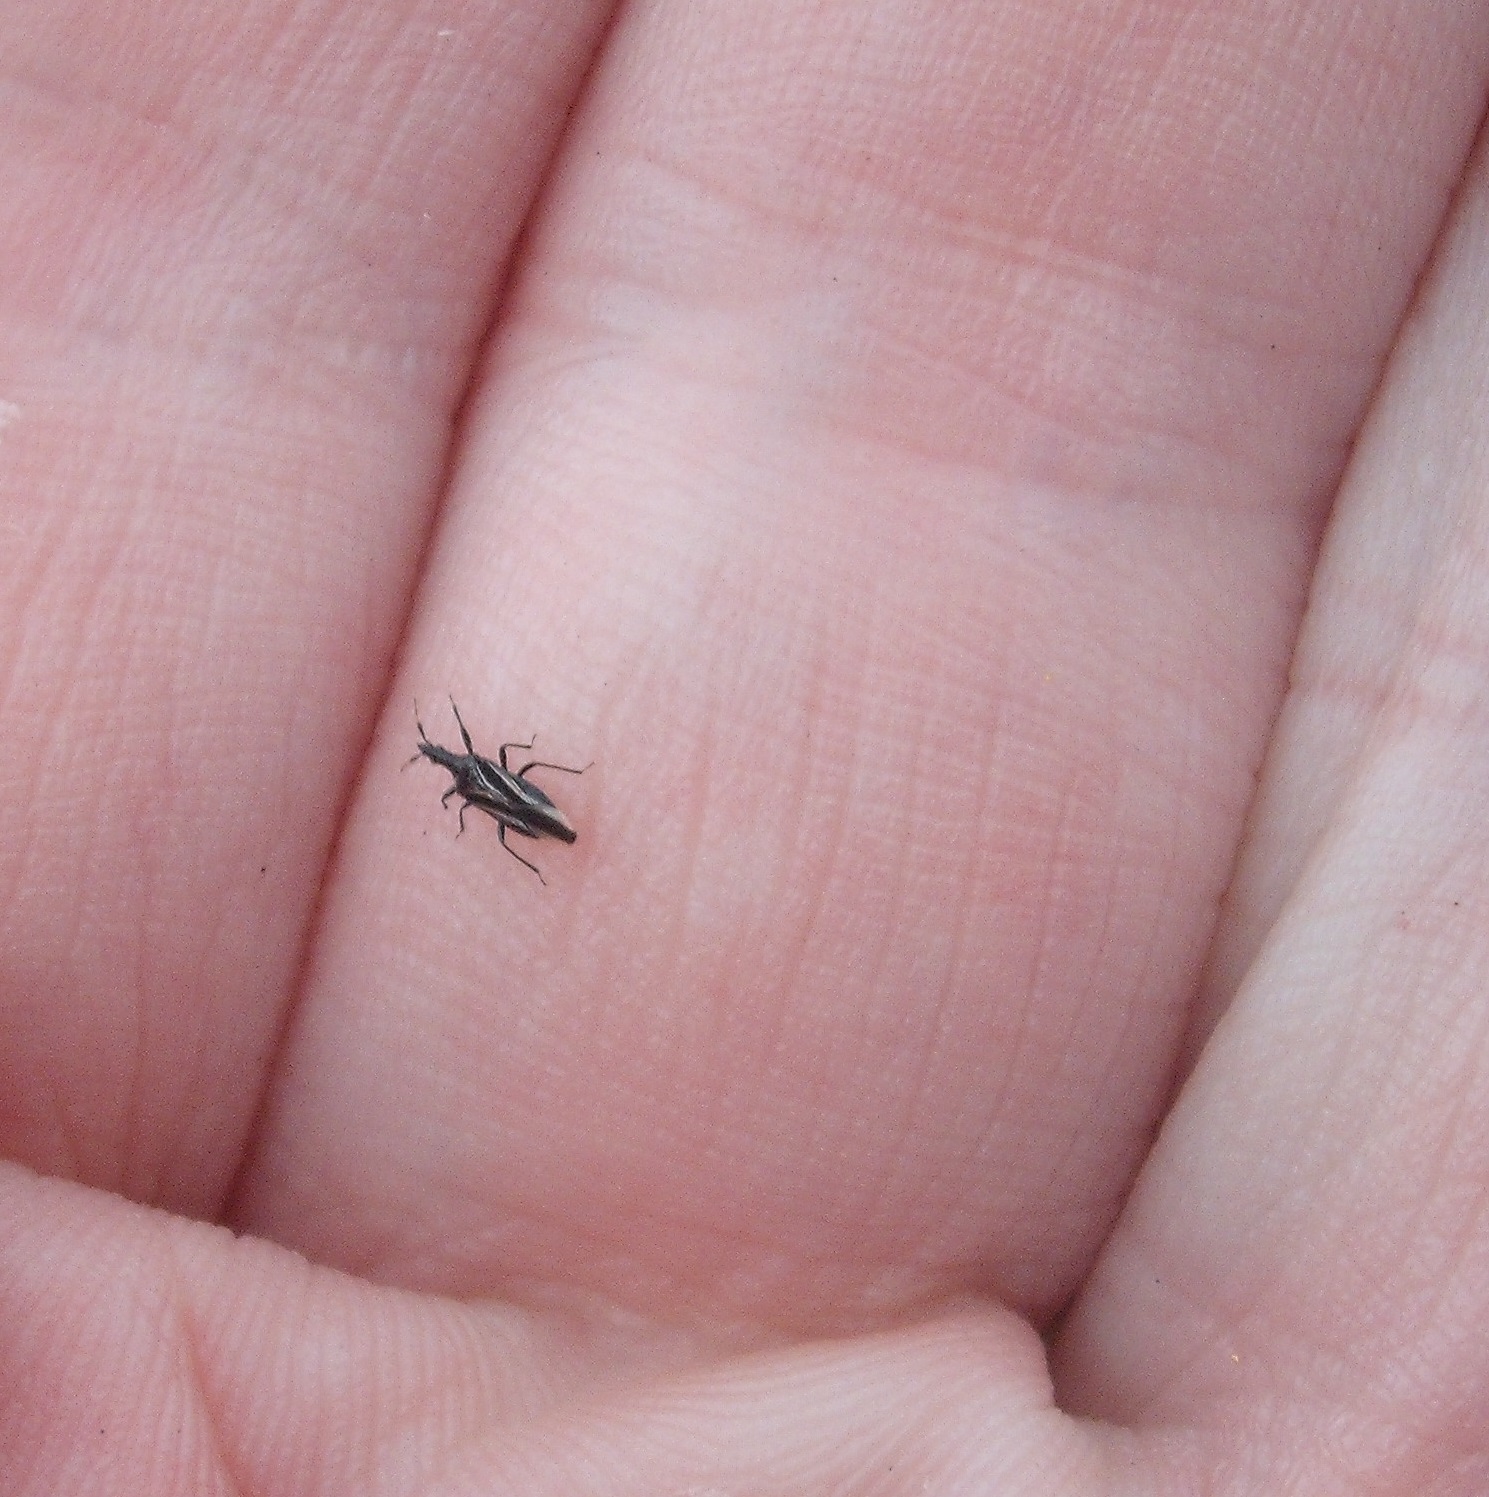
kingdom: Animalia
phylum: Arthropoda
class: Insecta
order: Hemiptera
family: Anthocoridae
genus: Macrotrachelia
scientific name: Macrotrachelia nigronitens
